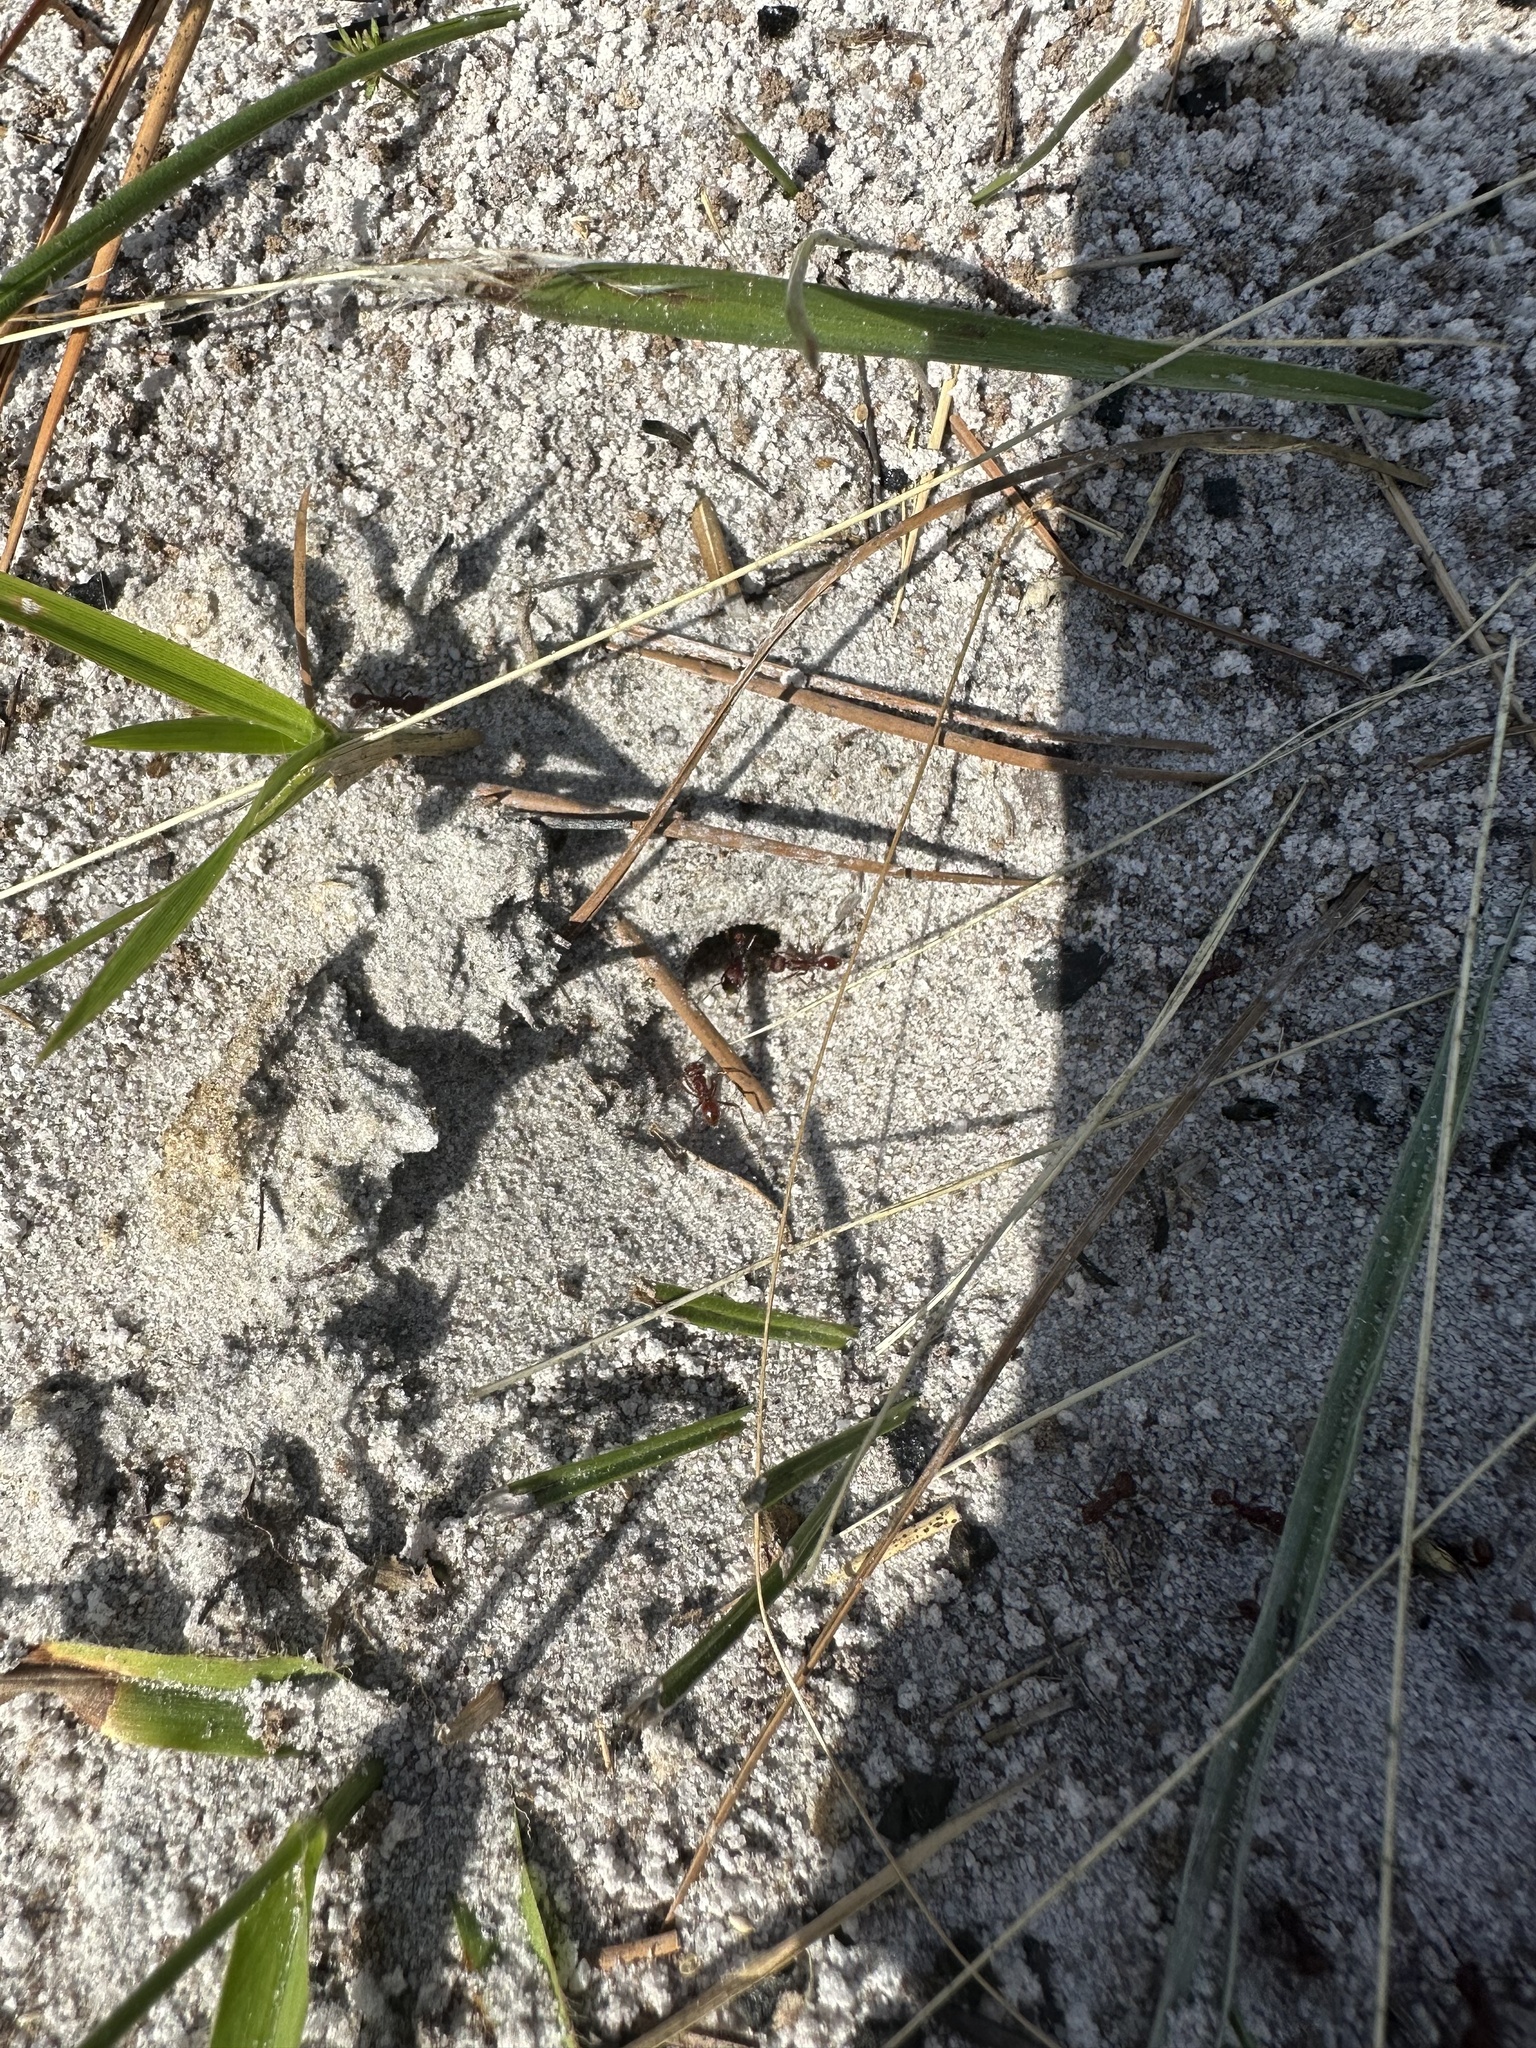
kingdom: Animalia
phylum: Arthropoda
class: Insecta
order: Hymenoptera
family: Formicidae
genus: Pogonomyrmex
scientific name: Pogonomyrmex badius
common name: Florida harvester ant
